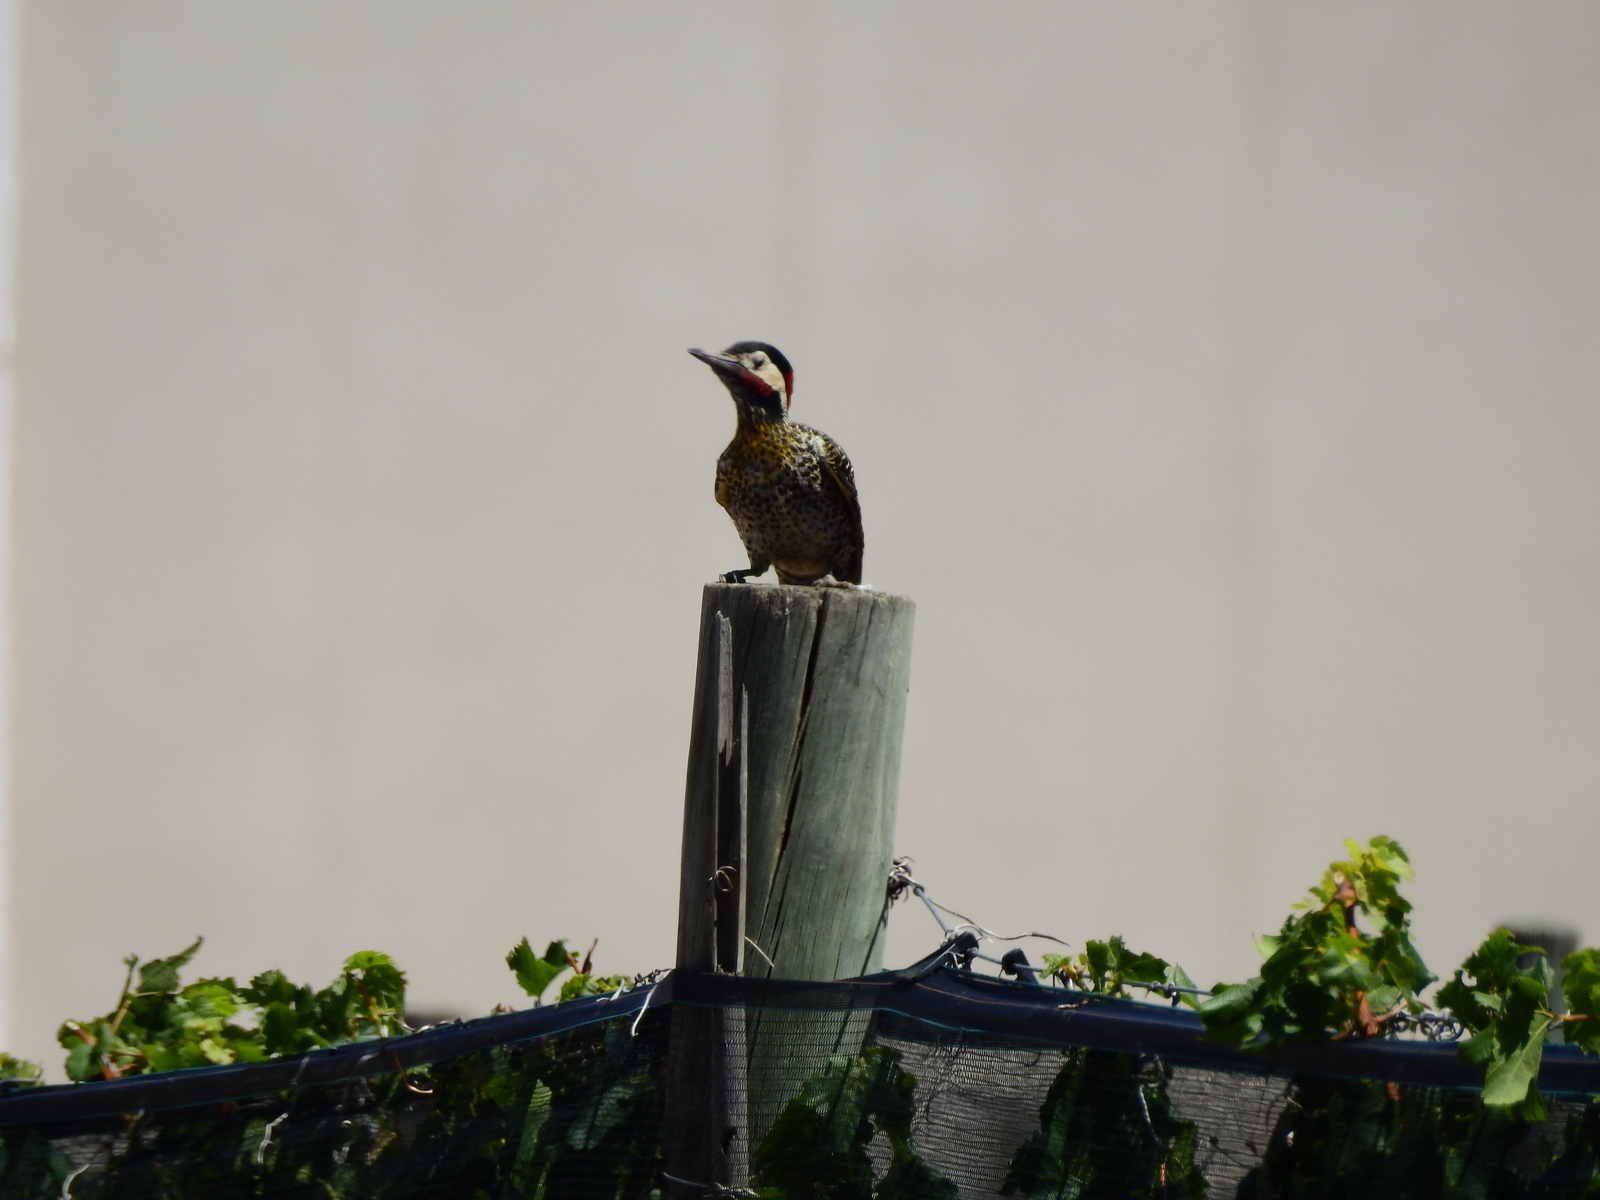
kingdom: Animalia
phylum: Chordata
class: Aves
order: Piciformes
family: Picidae
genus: Colaptes
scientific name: Colaptes melanochloros
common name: Green-barred woodpecker
